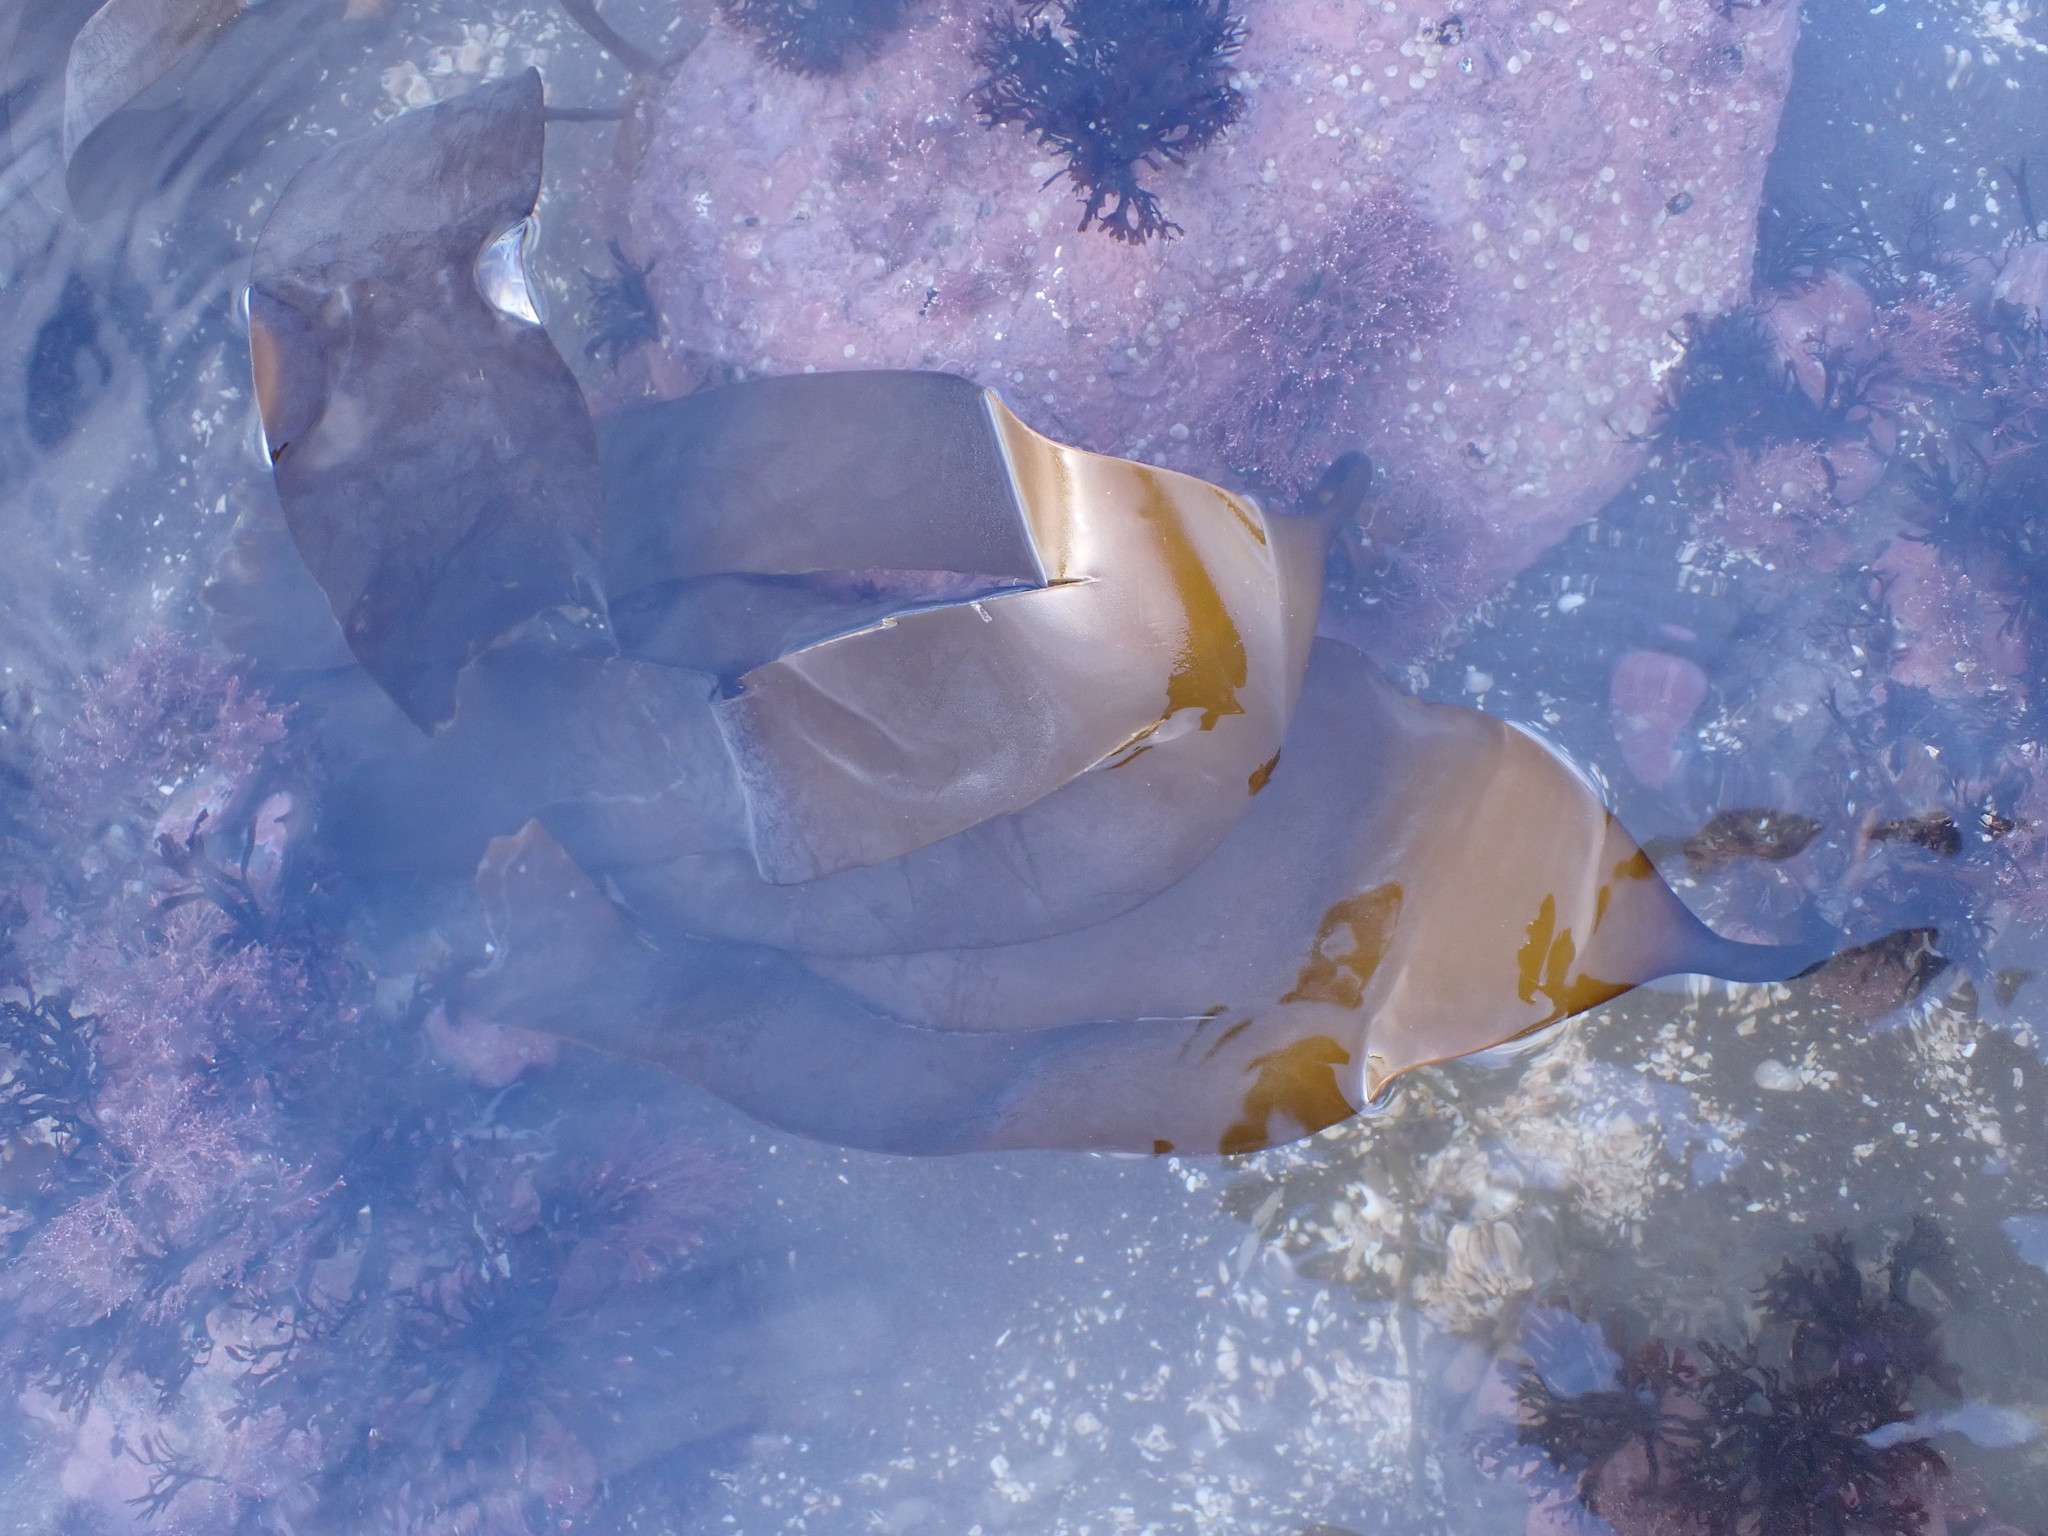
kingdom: Chromista
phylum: Ochrophyta
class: Phaeophyceae
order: Laminariales
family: Laminariaceae
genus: Laminaria
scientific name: Laminaria digitata
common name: Oarweed
